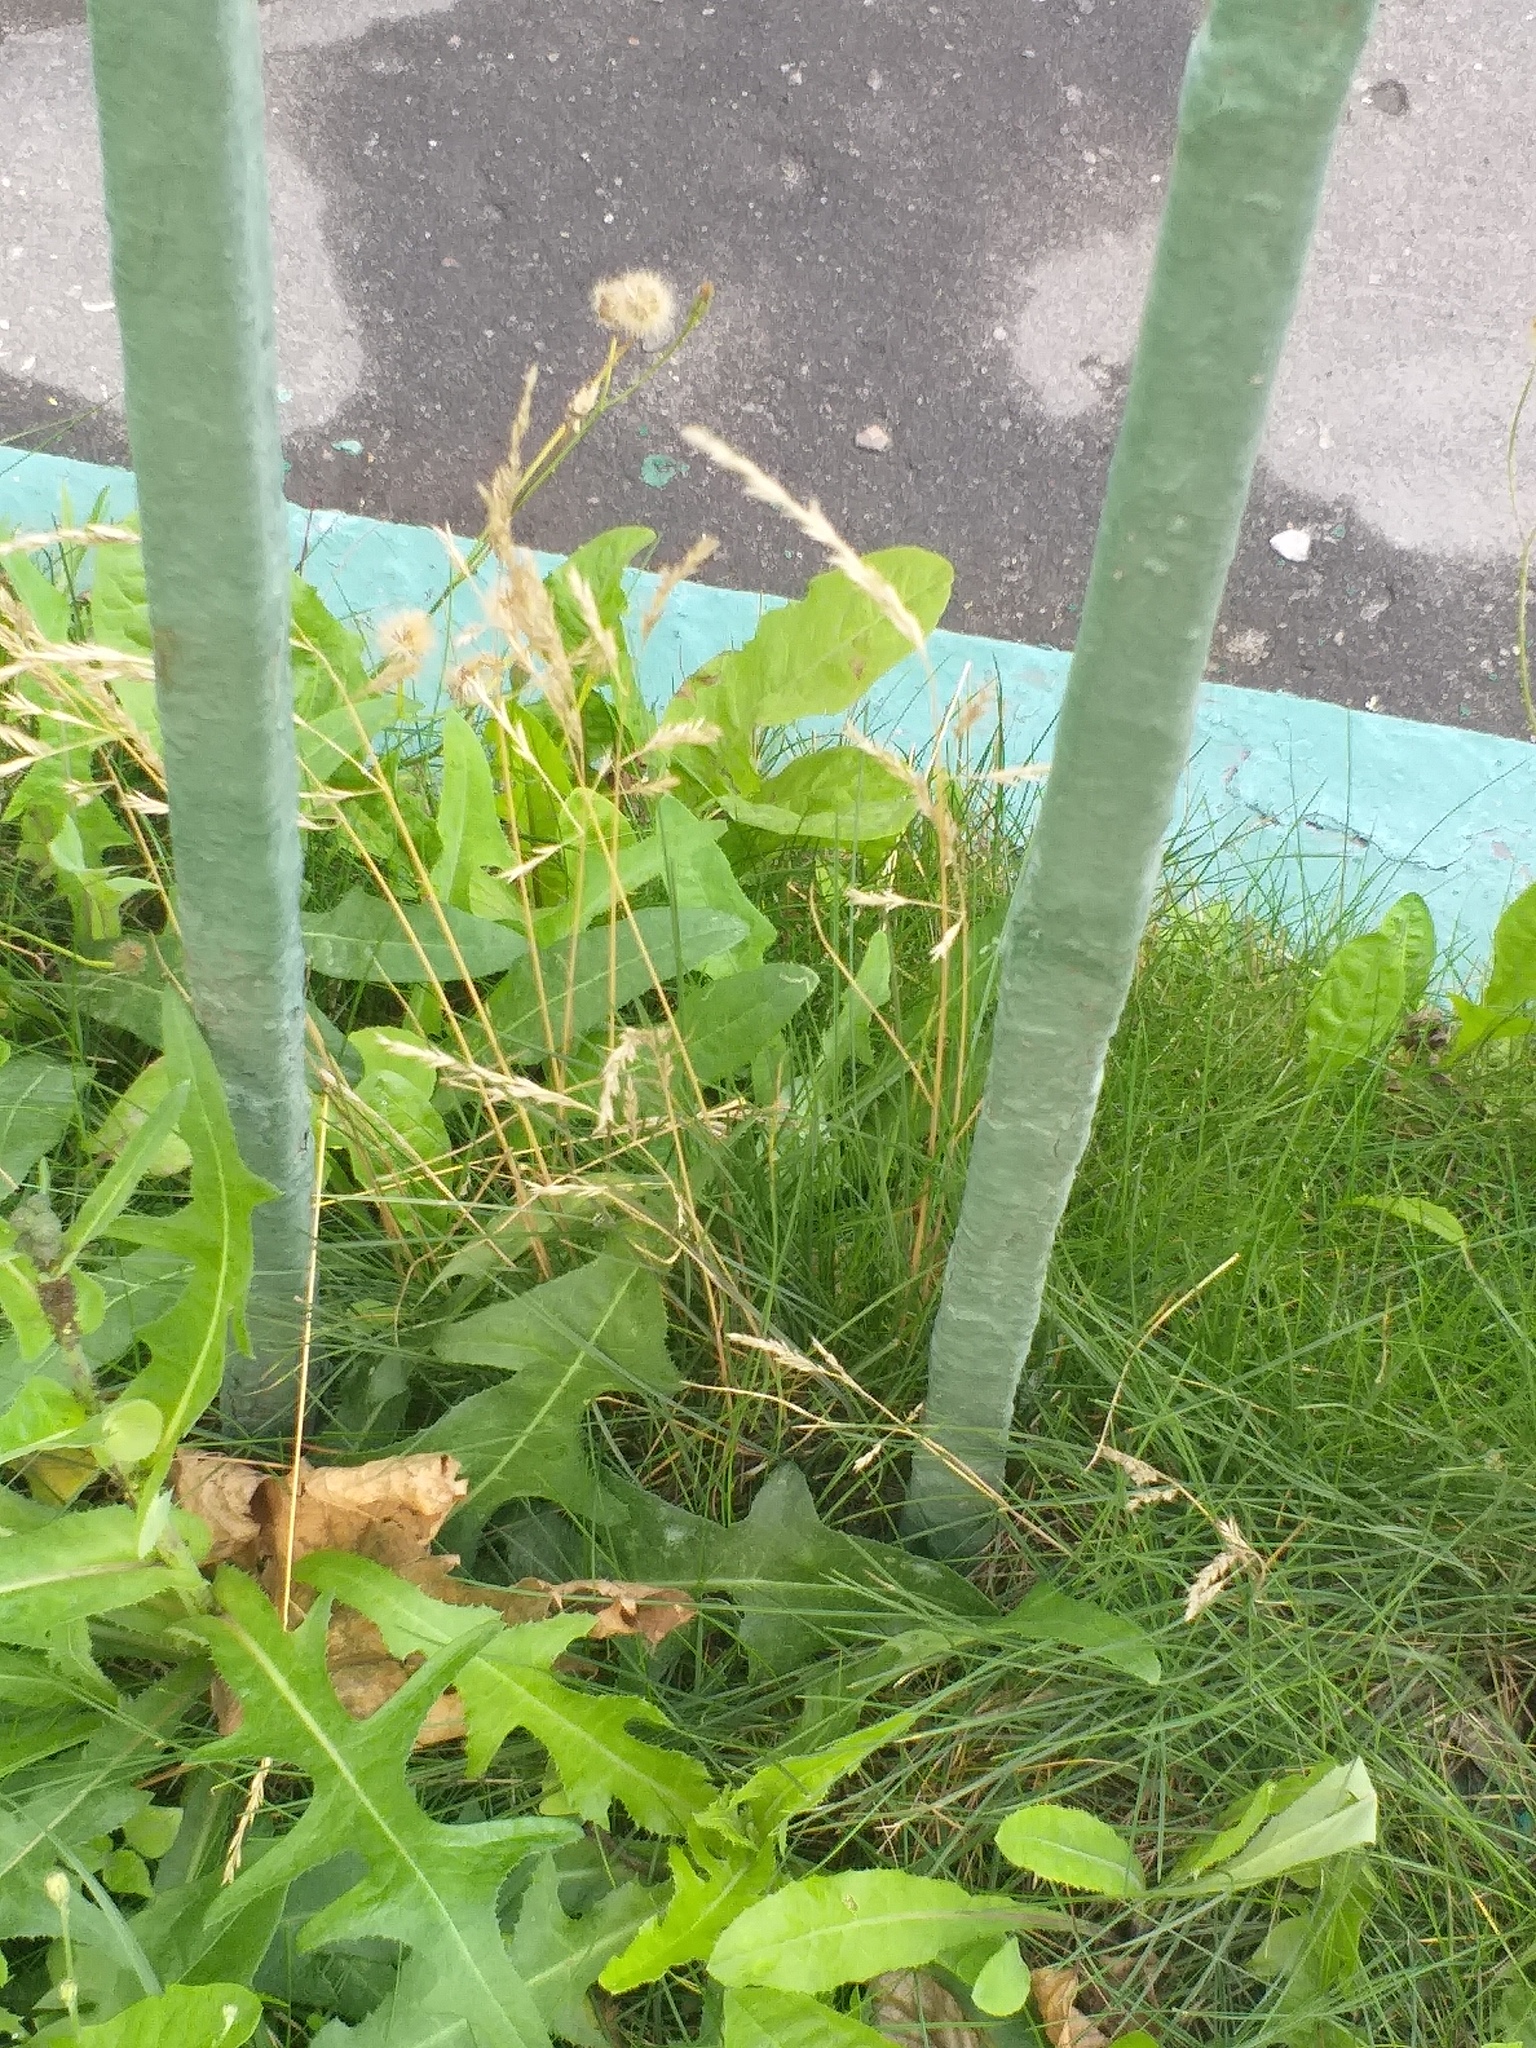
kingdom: Plantae
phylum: Tracheophyta
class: Liliopsida
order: Poales
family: Poaceae
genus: Festuca
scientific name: Festuca rubra
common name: Red fescue
